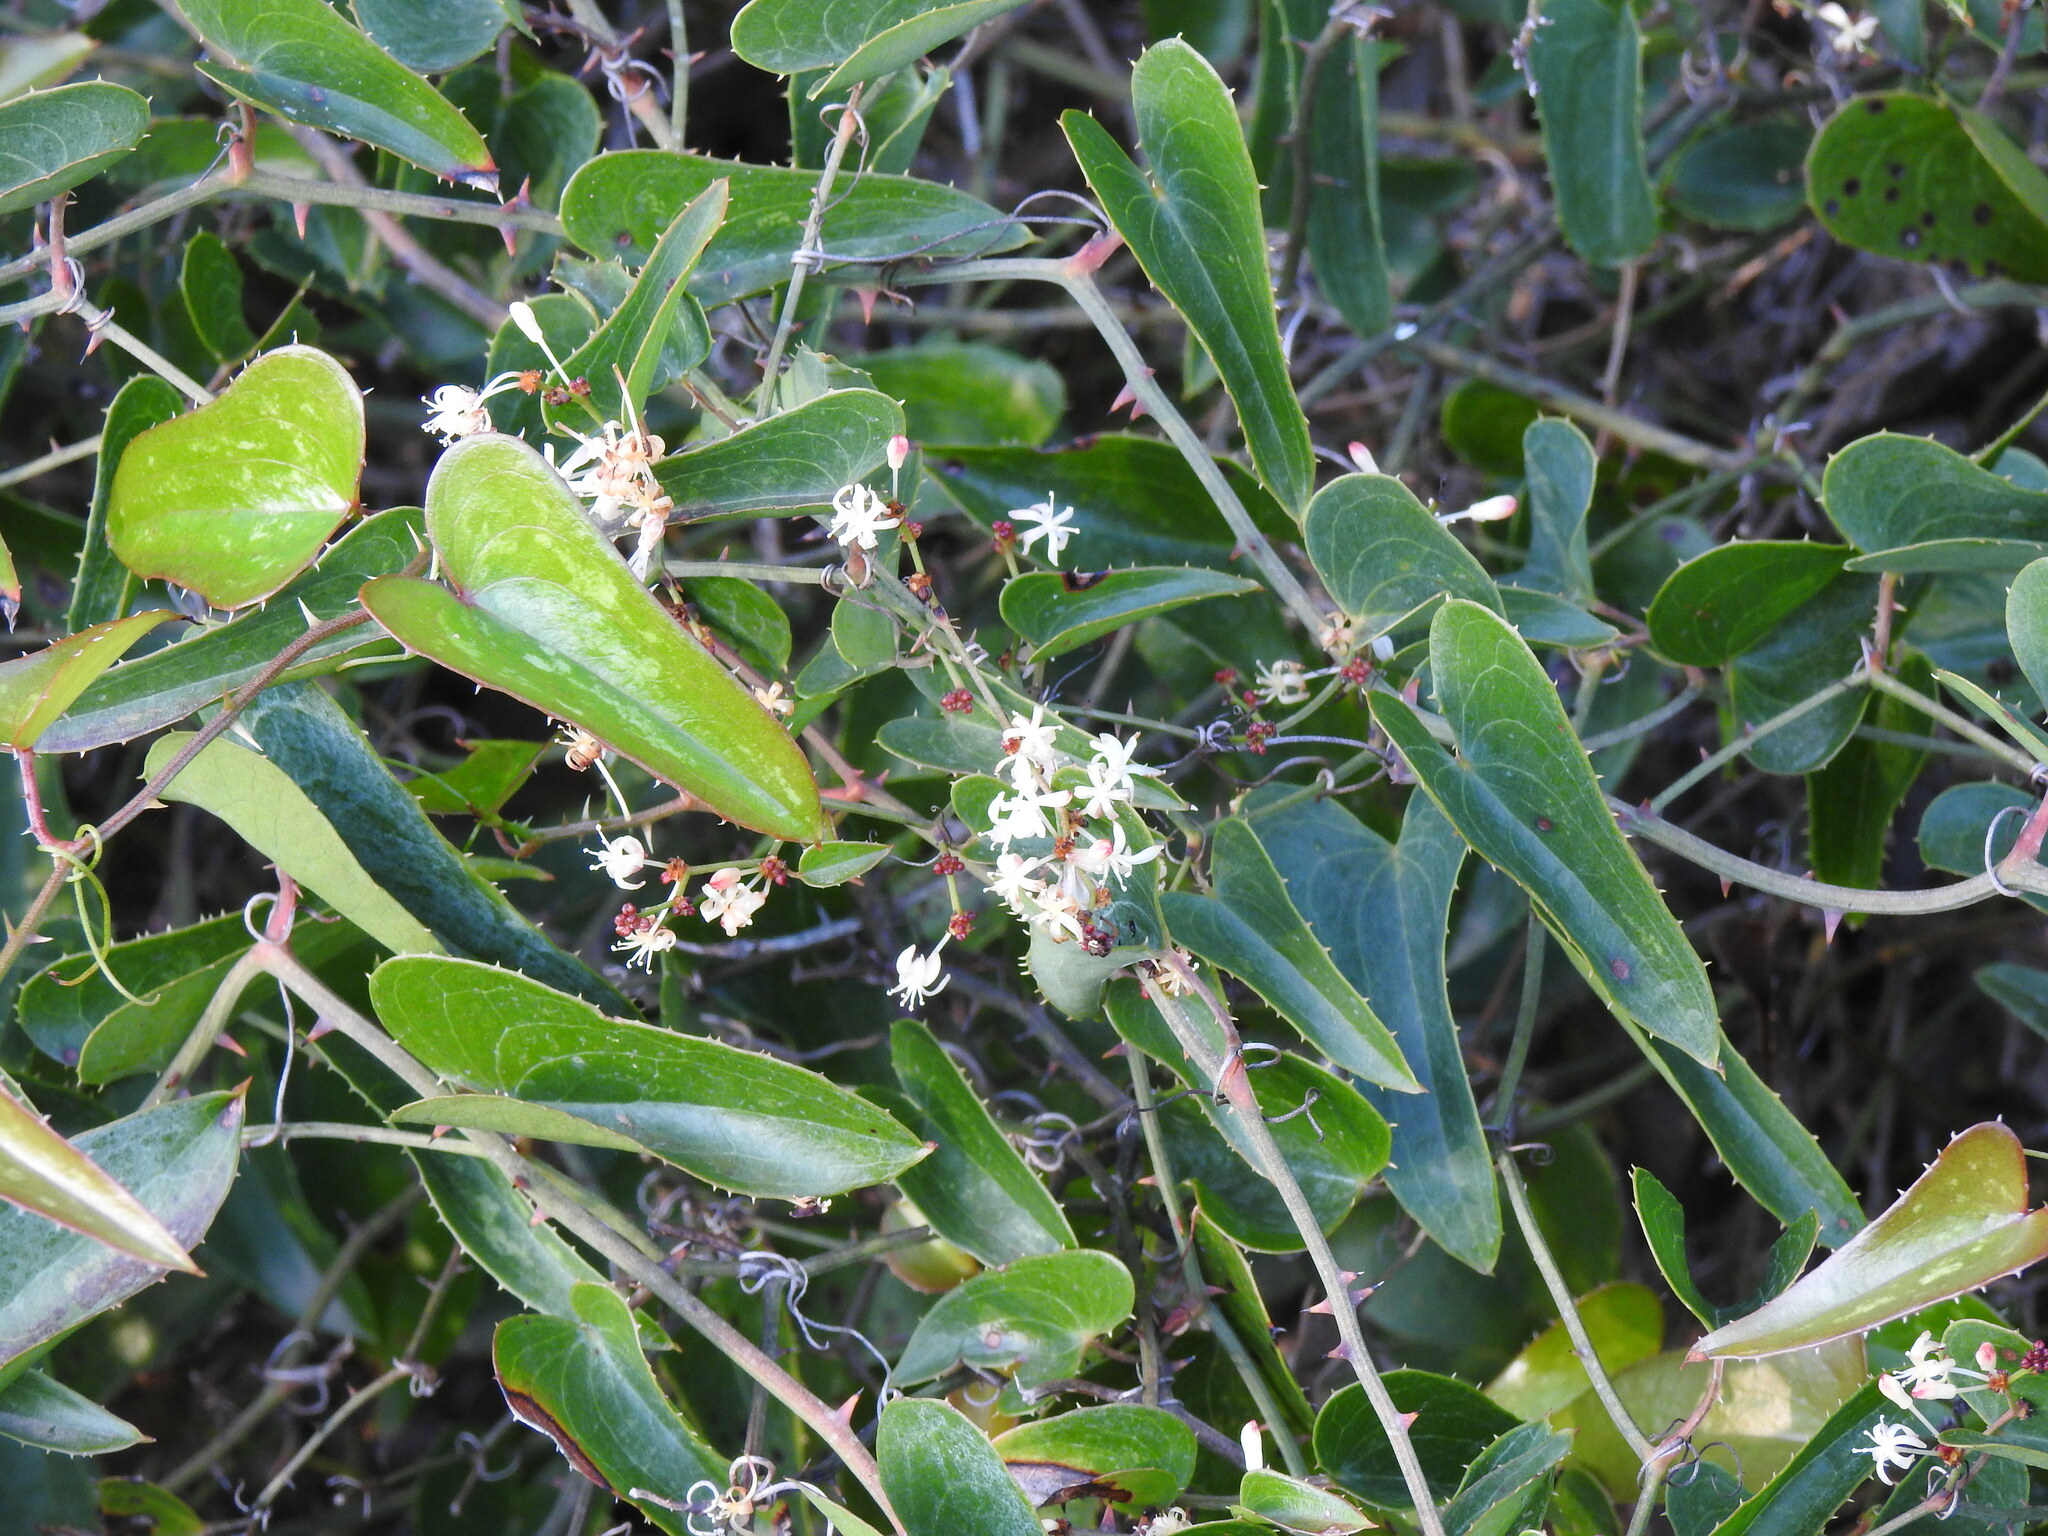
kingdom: Plantae
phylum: Tracheophyta
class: Liliopsida
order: Liliales
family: Smilacaceae
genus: Smilax
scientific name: Smilax aspera
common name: Common smilax
